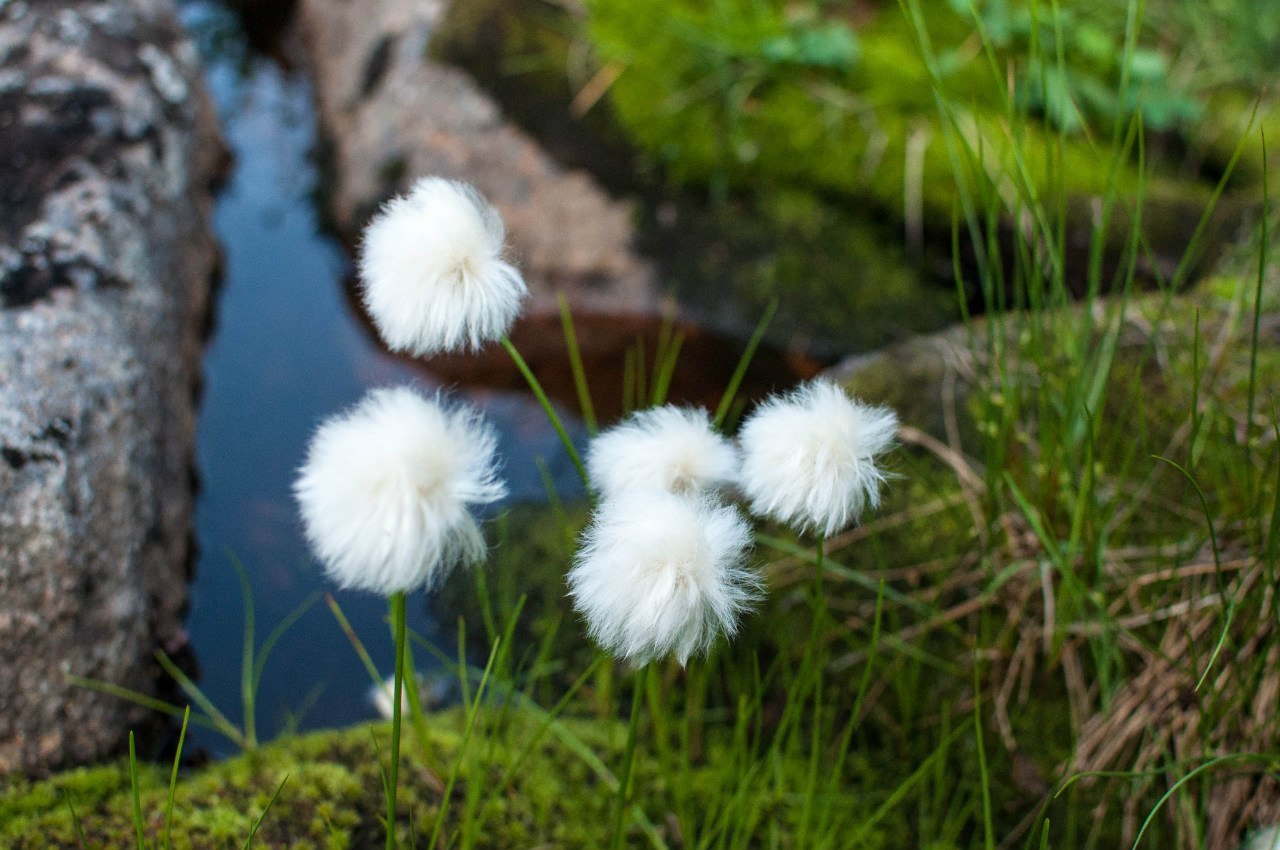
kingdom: Plantae
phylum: Tracheophyta
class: Liliopsida
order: Poales
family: Cyperaceae
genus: Eriophorum
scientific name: Eriophorum scheuchzeri
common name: Scheuchzer's cottongrass
